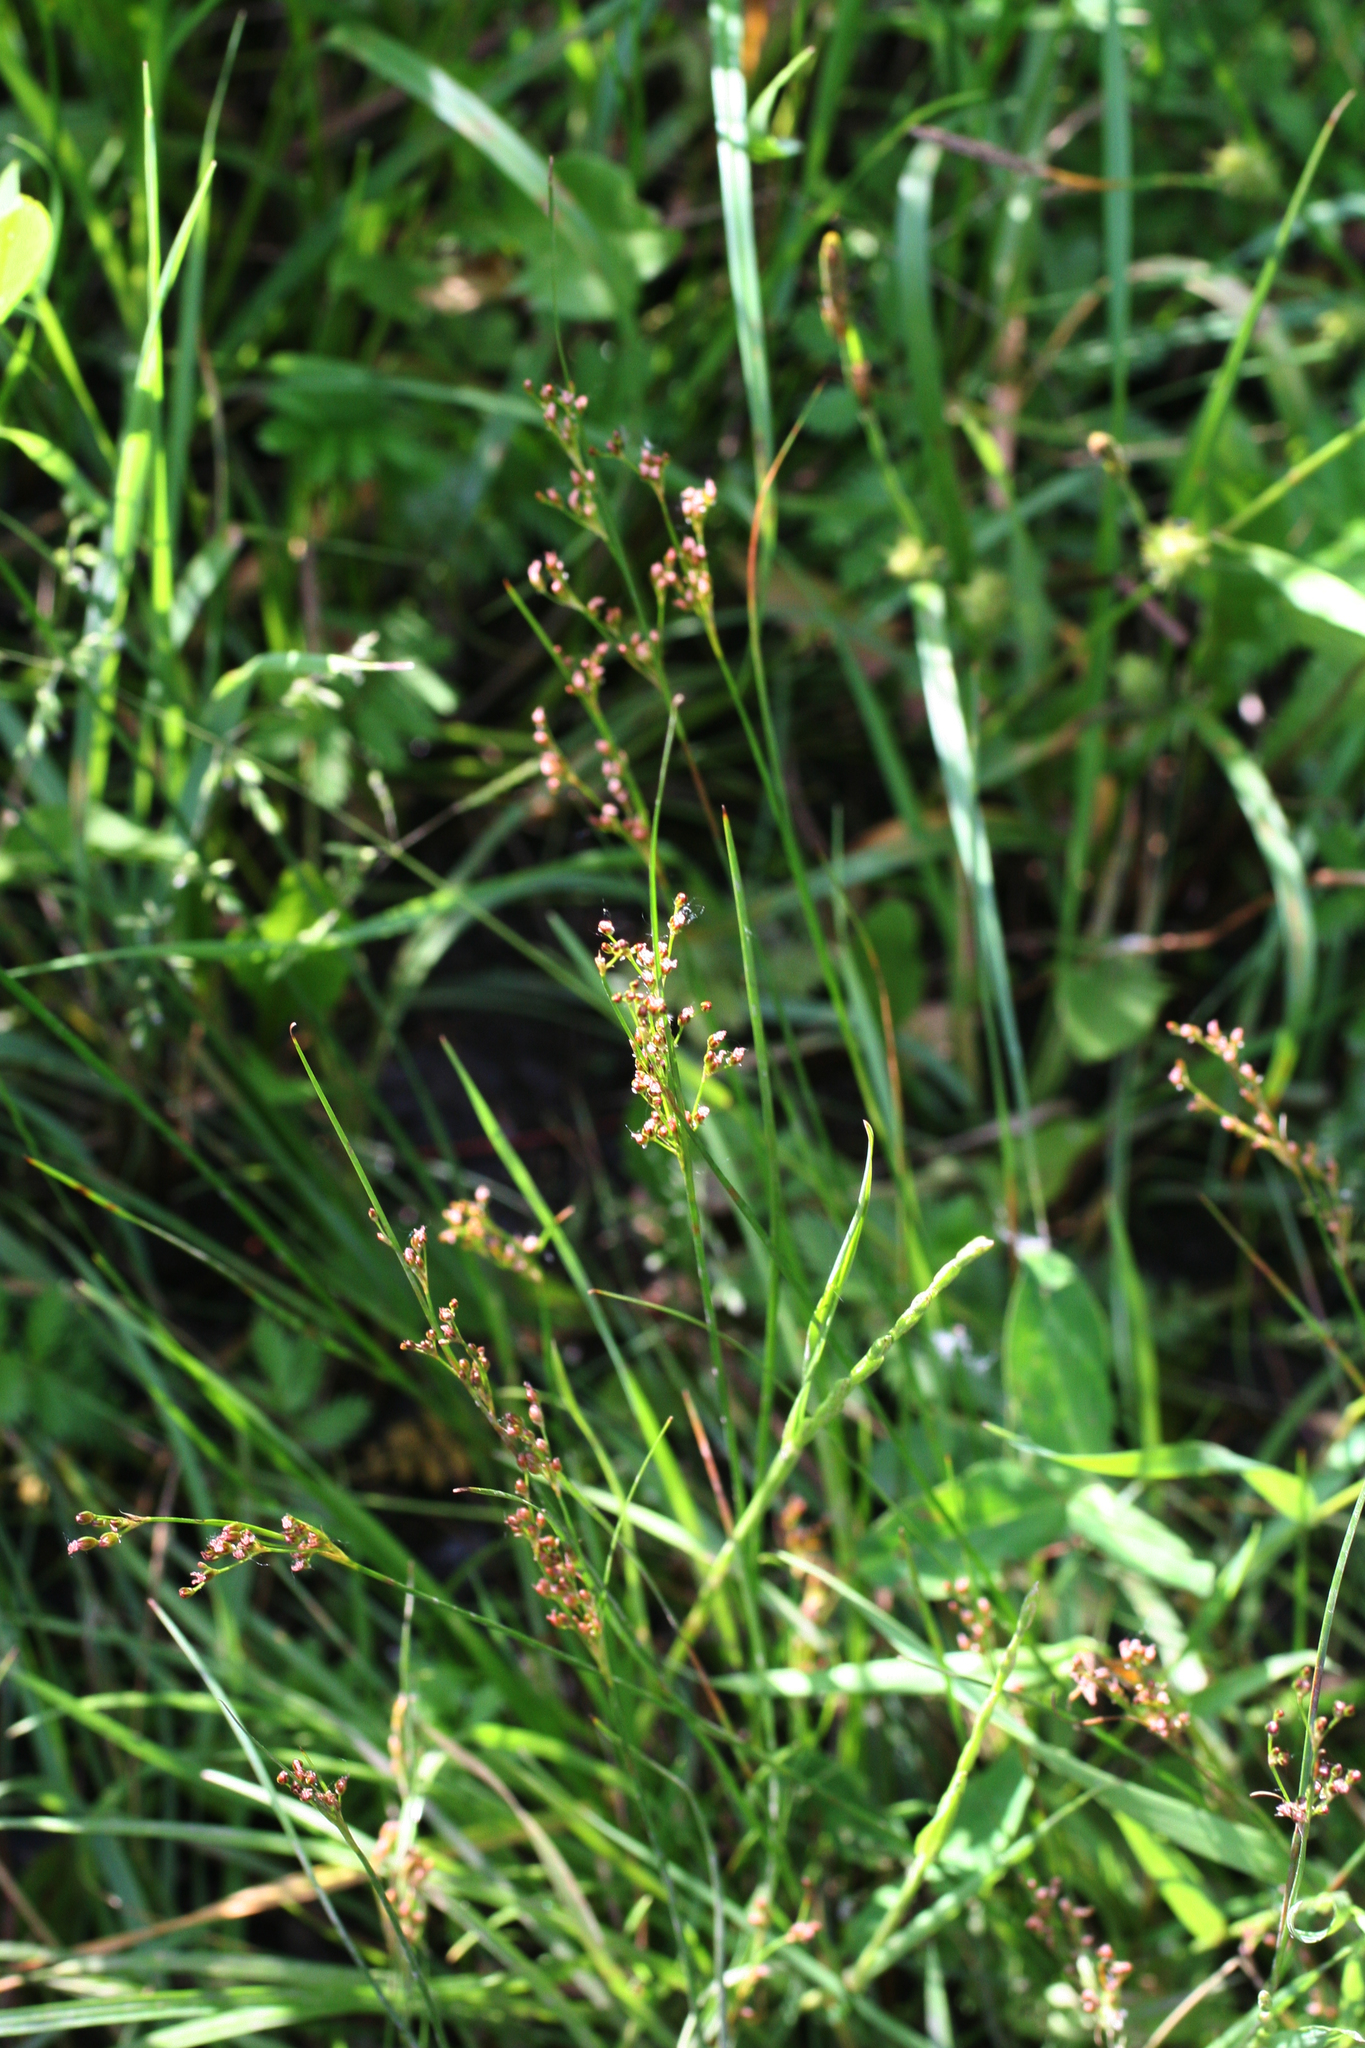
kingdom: Plantae
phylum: Tracheophyta
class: Liliopsida
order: Poales
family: Juncaceae
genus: Juncus
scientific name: Juncus compressus
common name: Round-fruited rush
